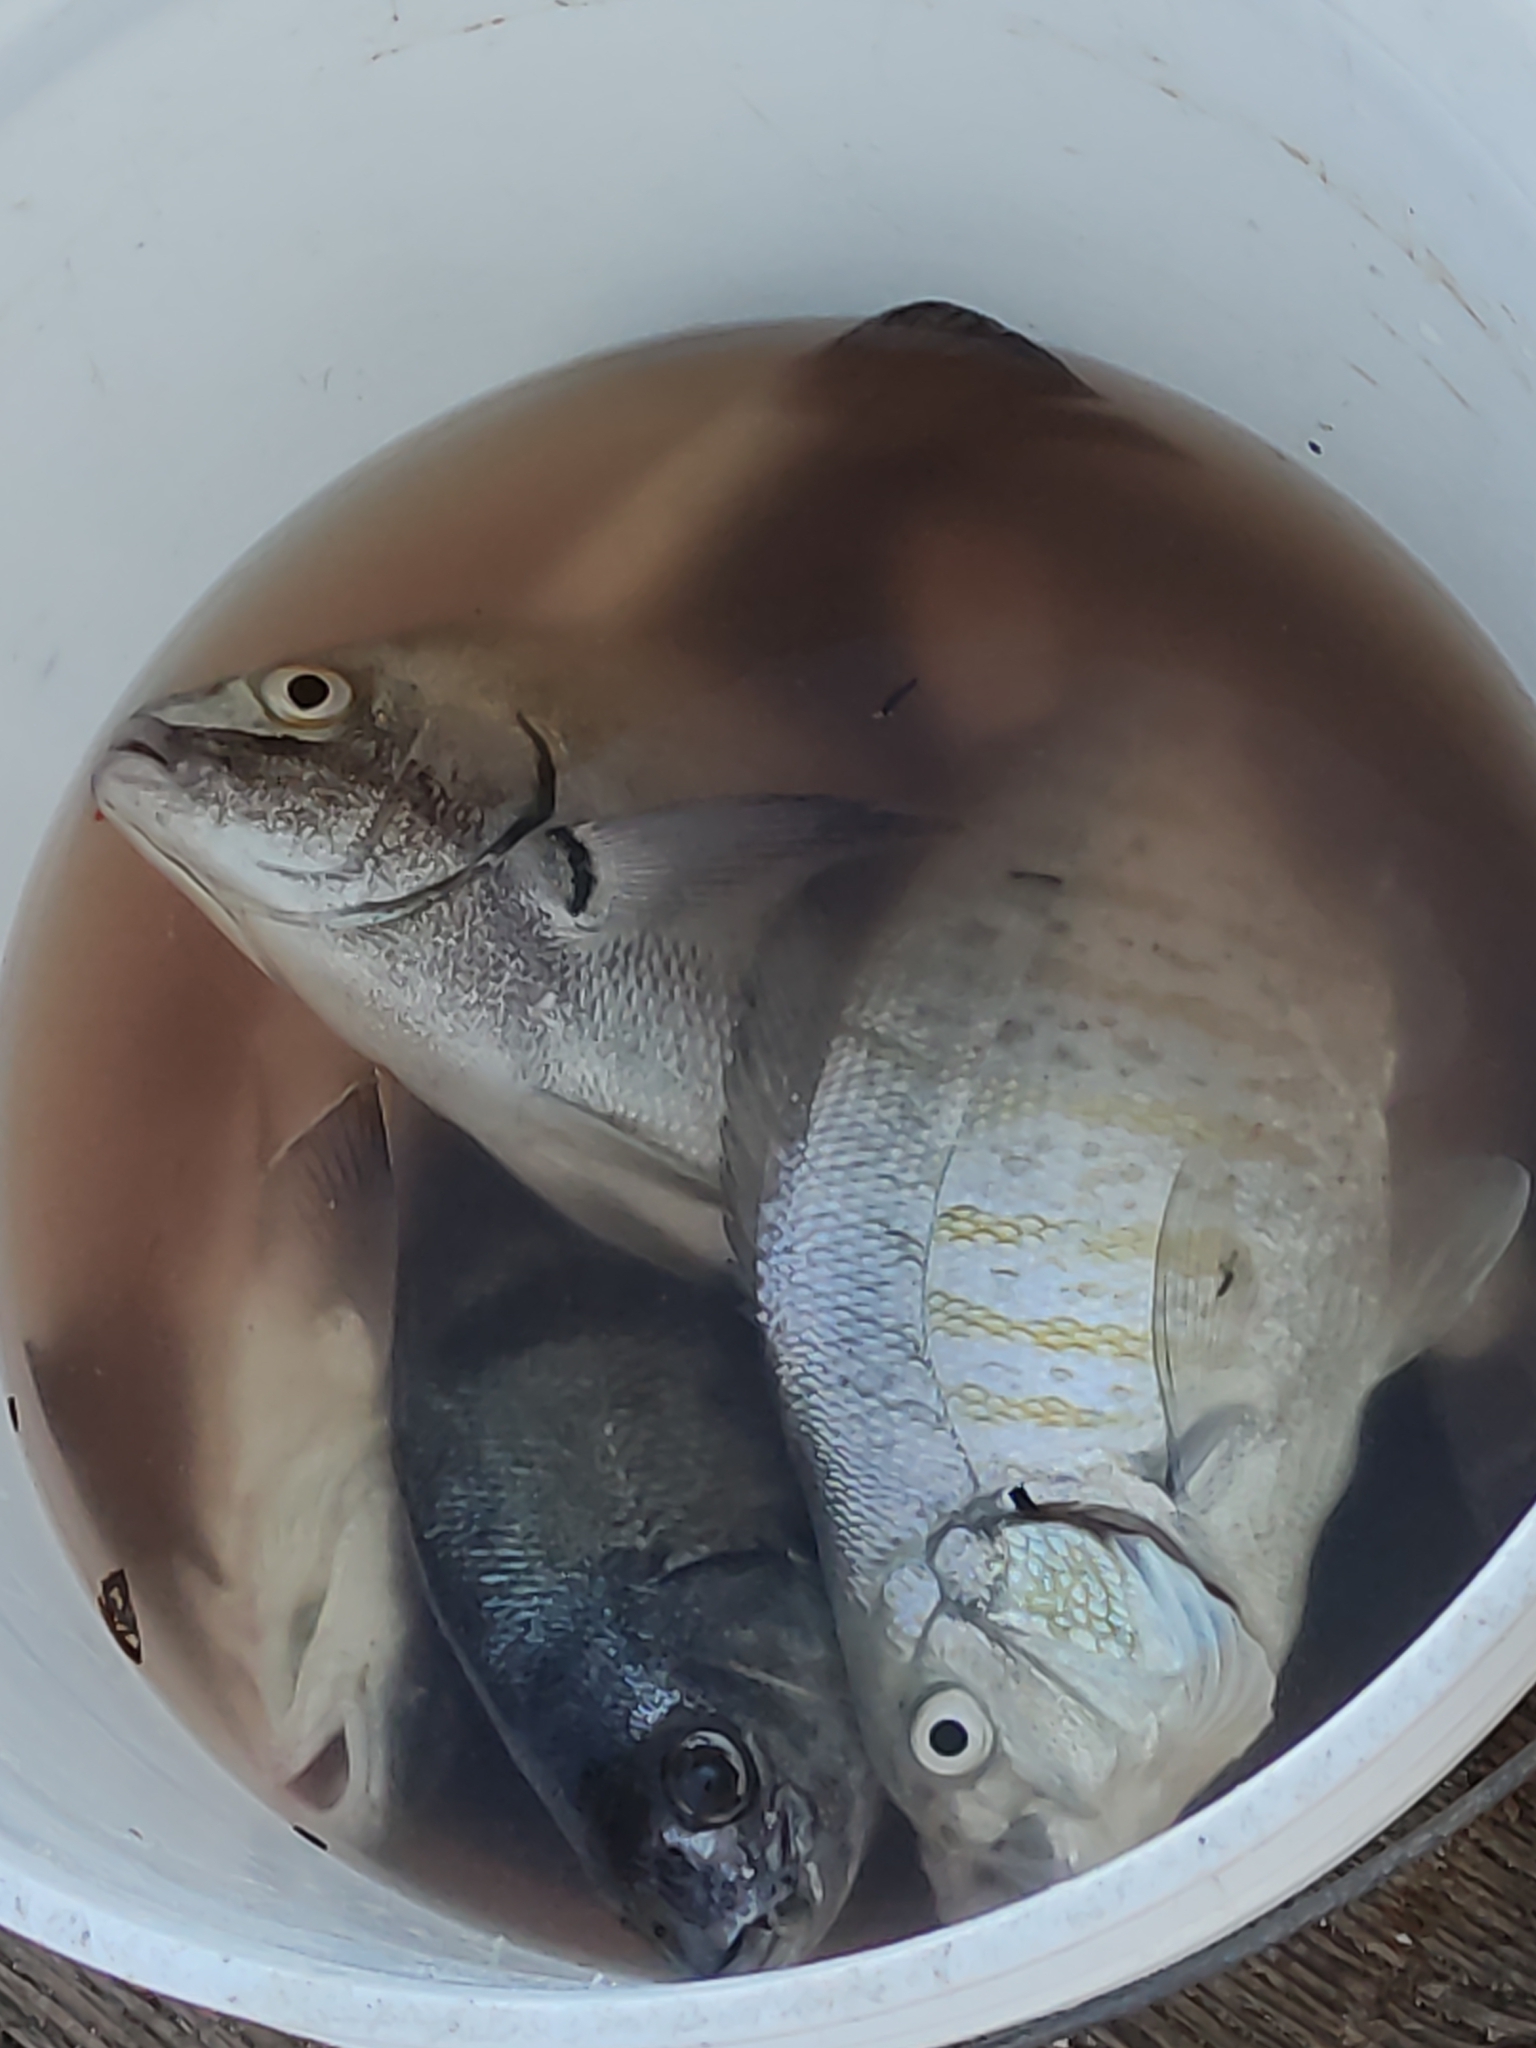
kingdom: Animalia
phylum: Chordata
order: Perciformes
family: Embiotocidae
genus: Amphistichus
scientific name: Amphistichus argenteus
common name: Barred surfperch
